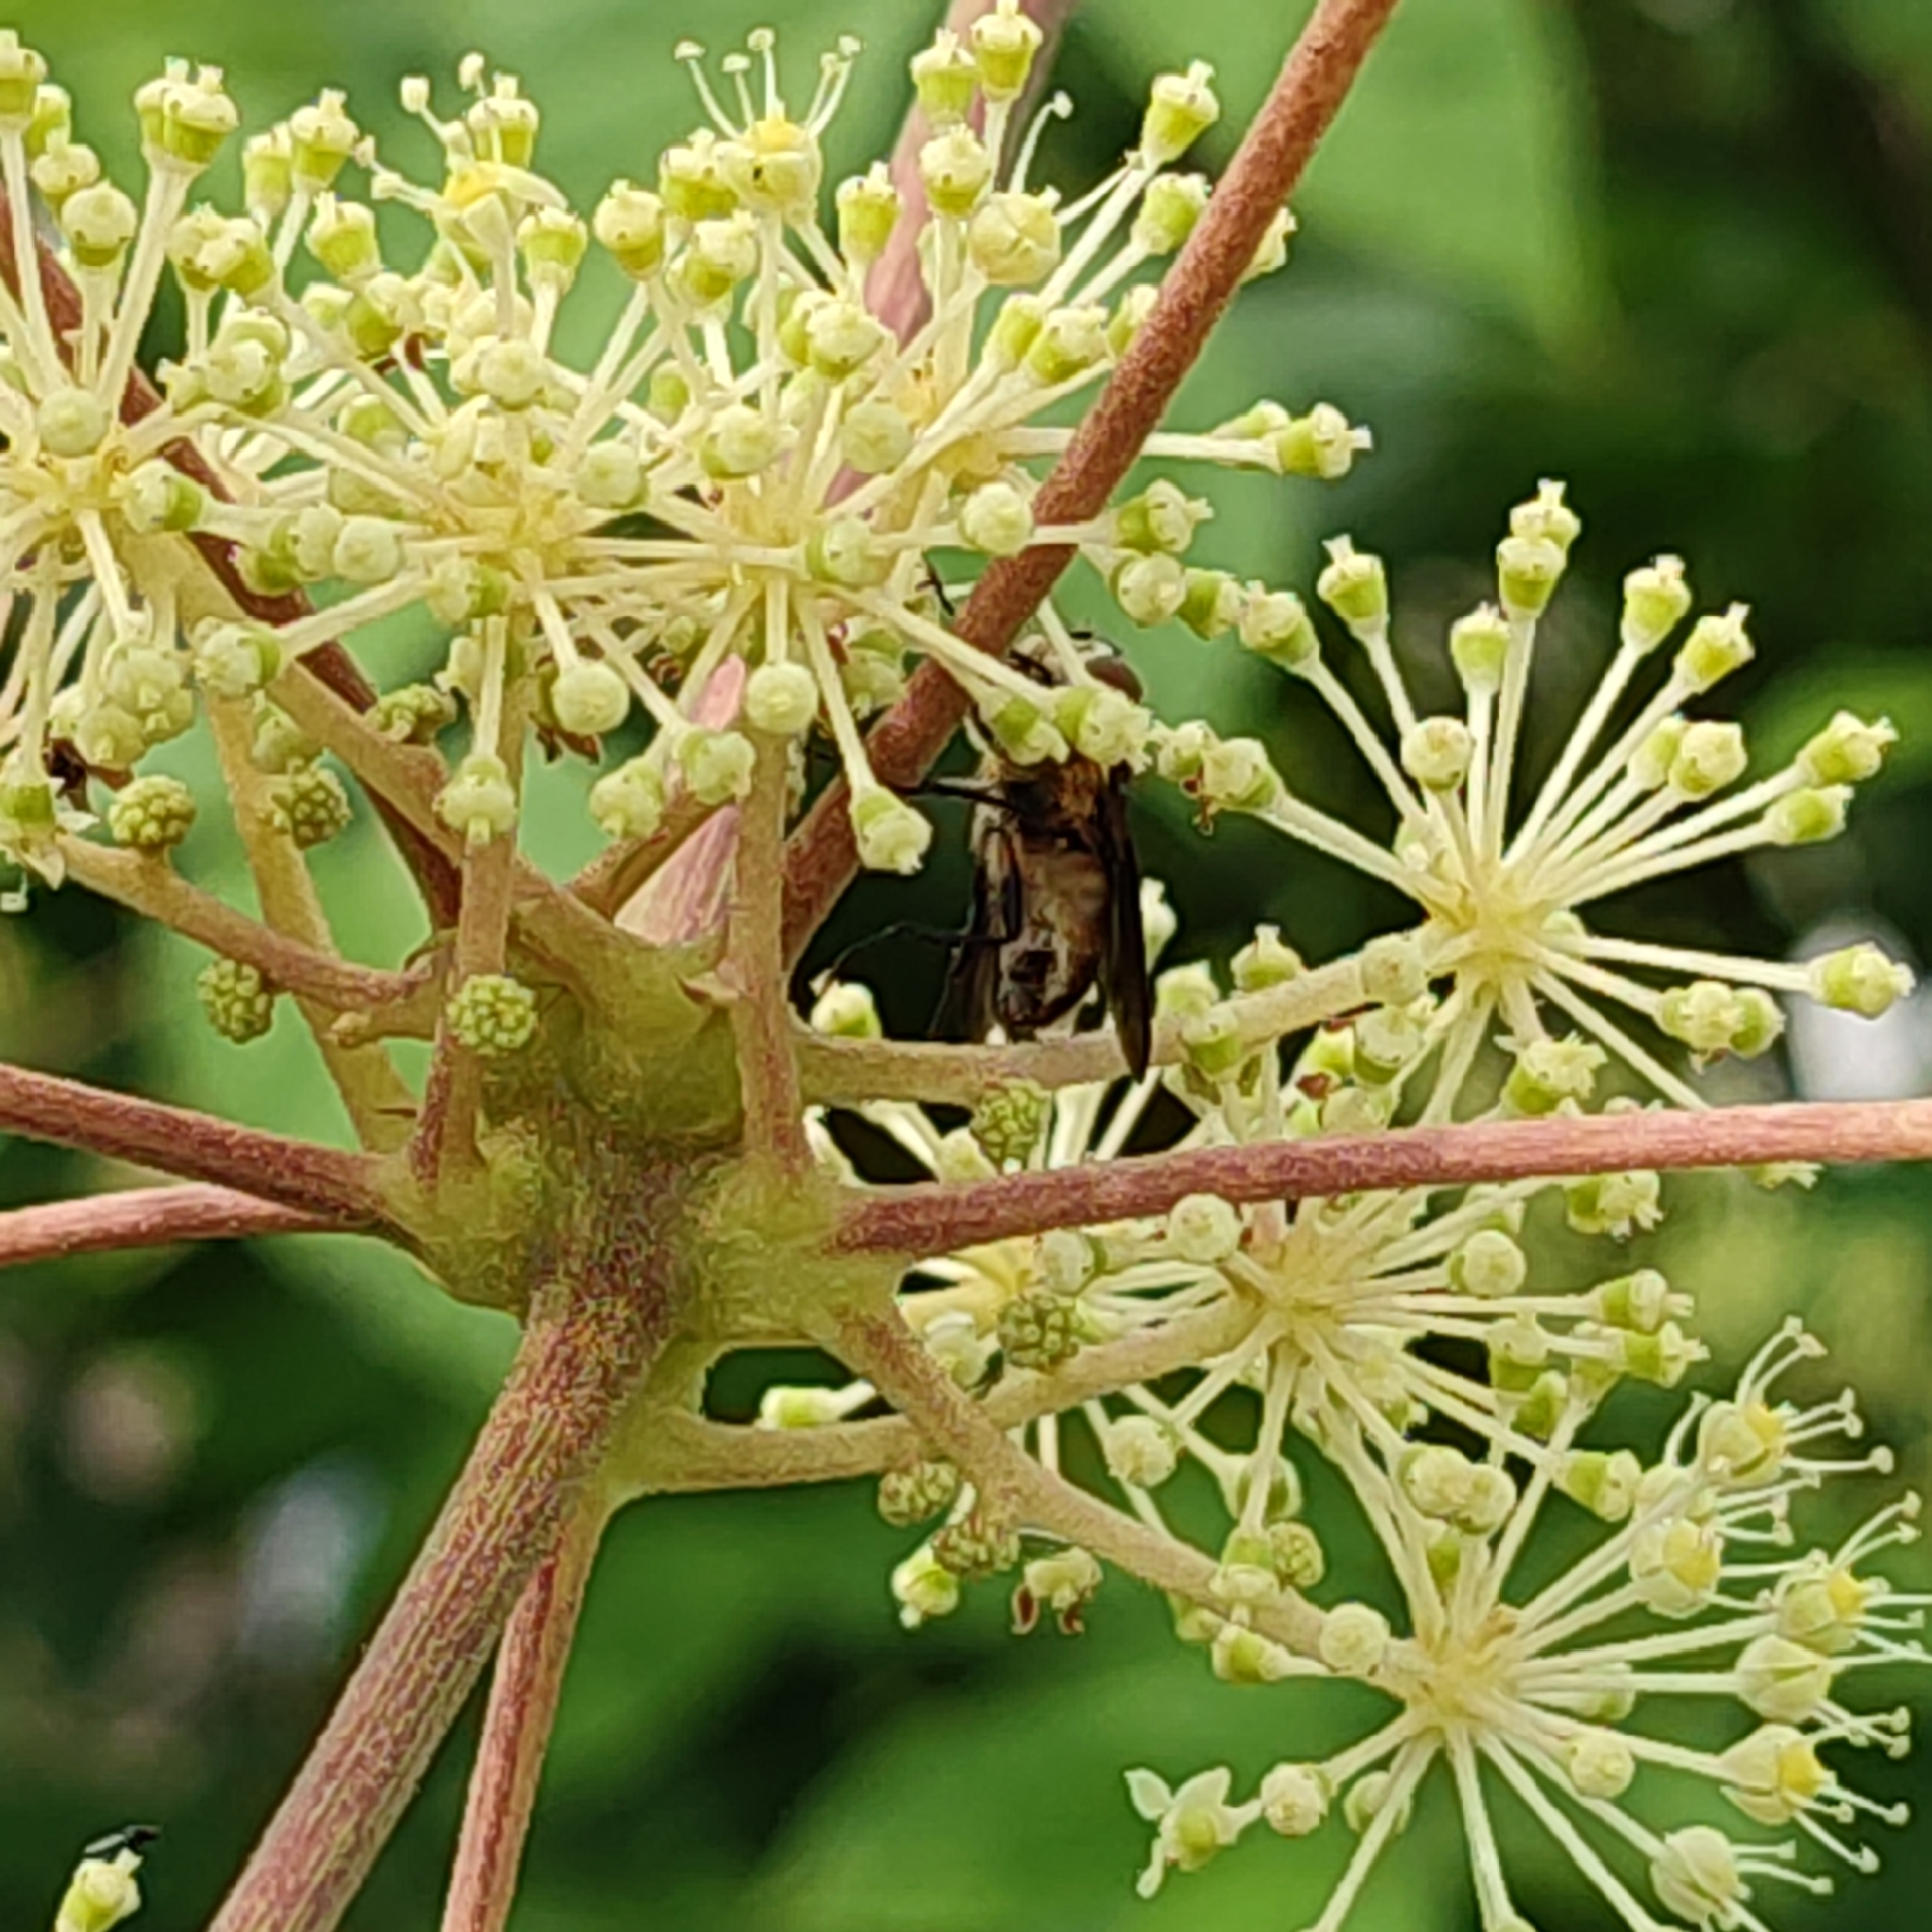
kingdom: Animalia
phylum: Arthropoda
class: Insecta
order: Diptera
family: Tachinidae
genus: Phasia
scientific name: Phasia hemiptera
